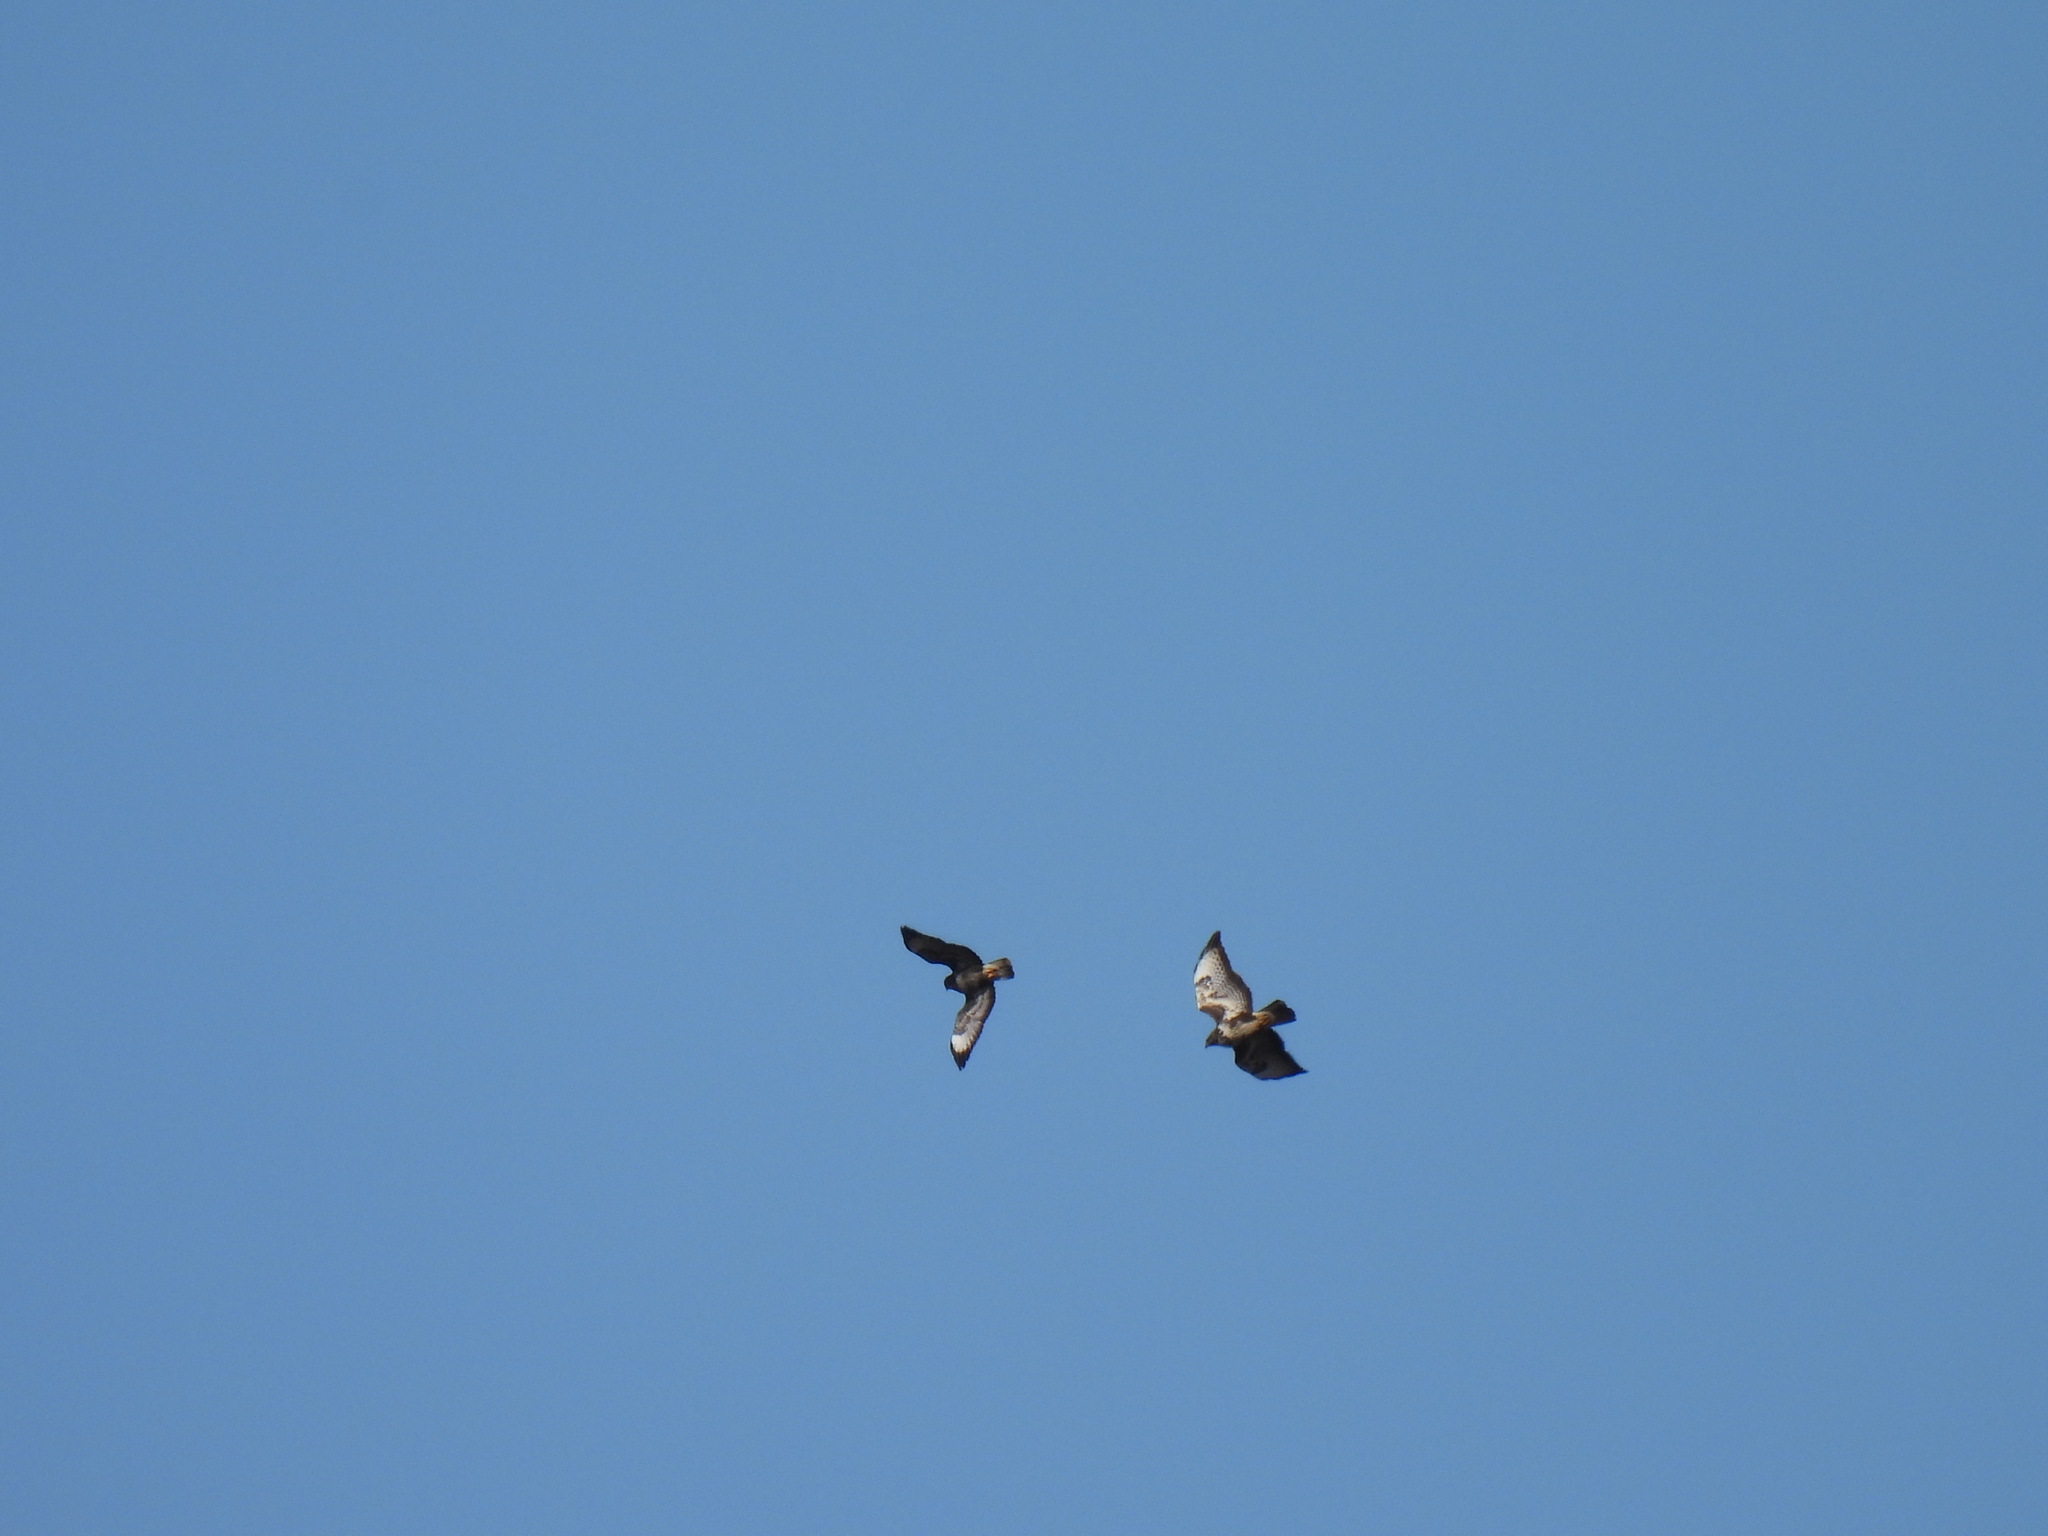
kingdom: Animalia
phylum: Chordata
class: Aves
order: Accipitriformes
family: Accipitridae
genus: Buteo
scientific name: Buteo buteo
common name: Common buzzard
